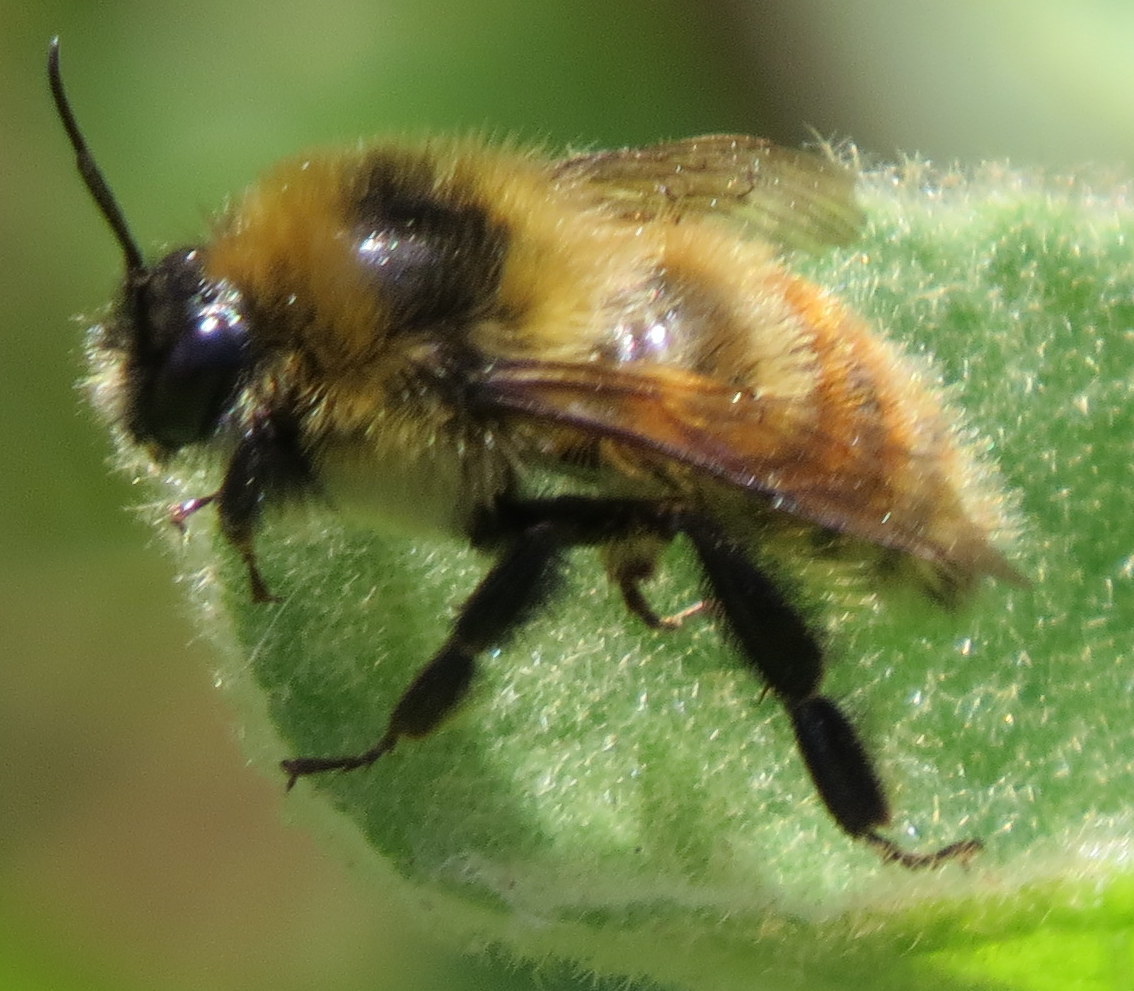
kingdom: Animalia
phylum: Arthropoda
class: Insecta
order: Hymenoptera
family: Apidae
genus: Bombus
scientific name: Bombus rufocinctus
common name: Red-belted bumble bee
